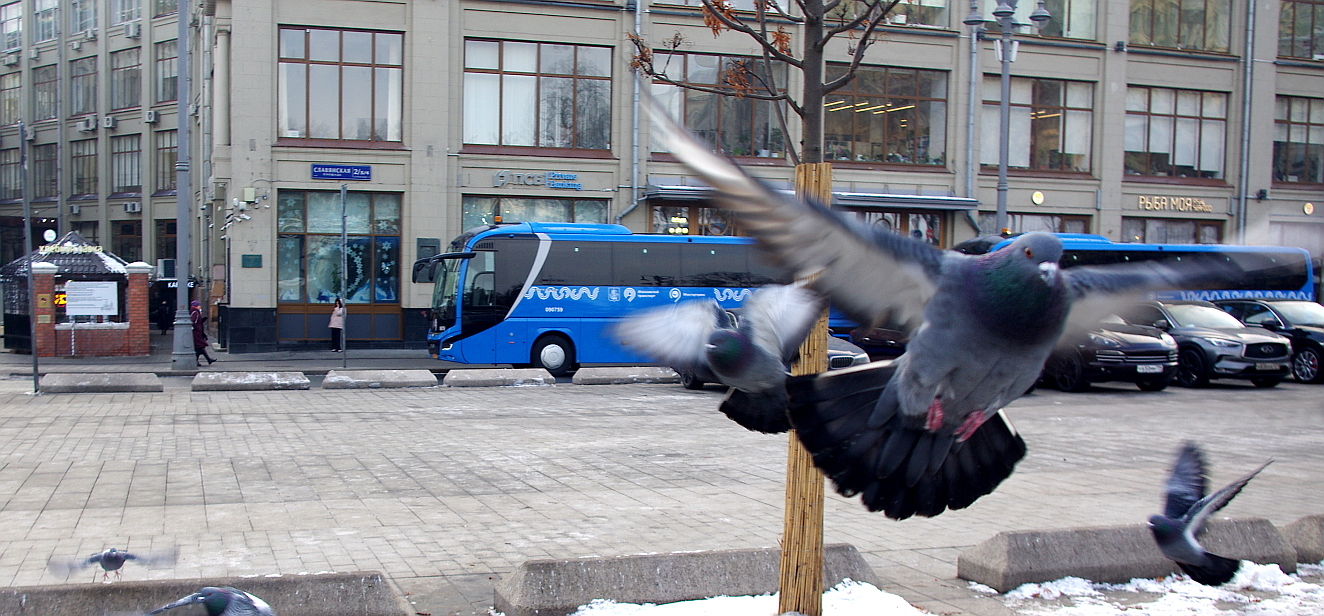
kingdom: Animalia
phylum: Chordata
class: Aves
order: Columbiformes
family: Columbidae
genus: Columba
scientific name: Columba livia
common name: Rock pigeon
